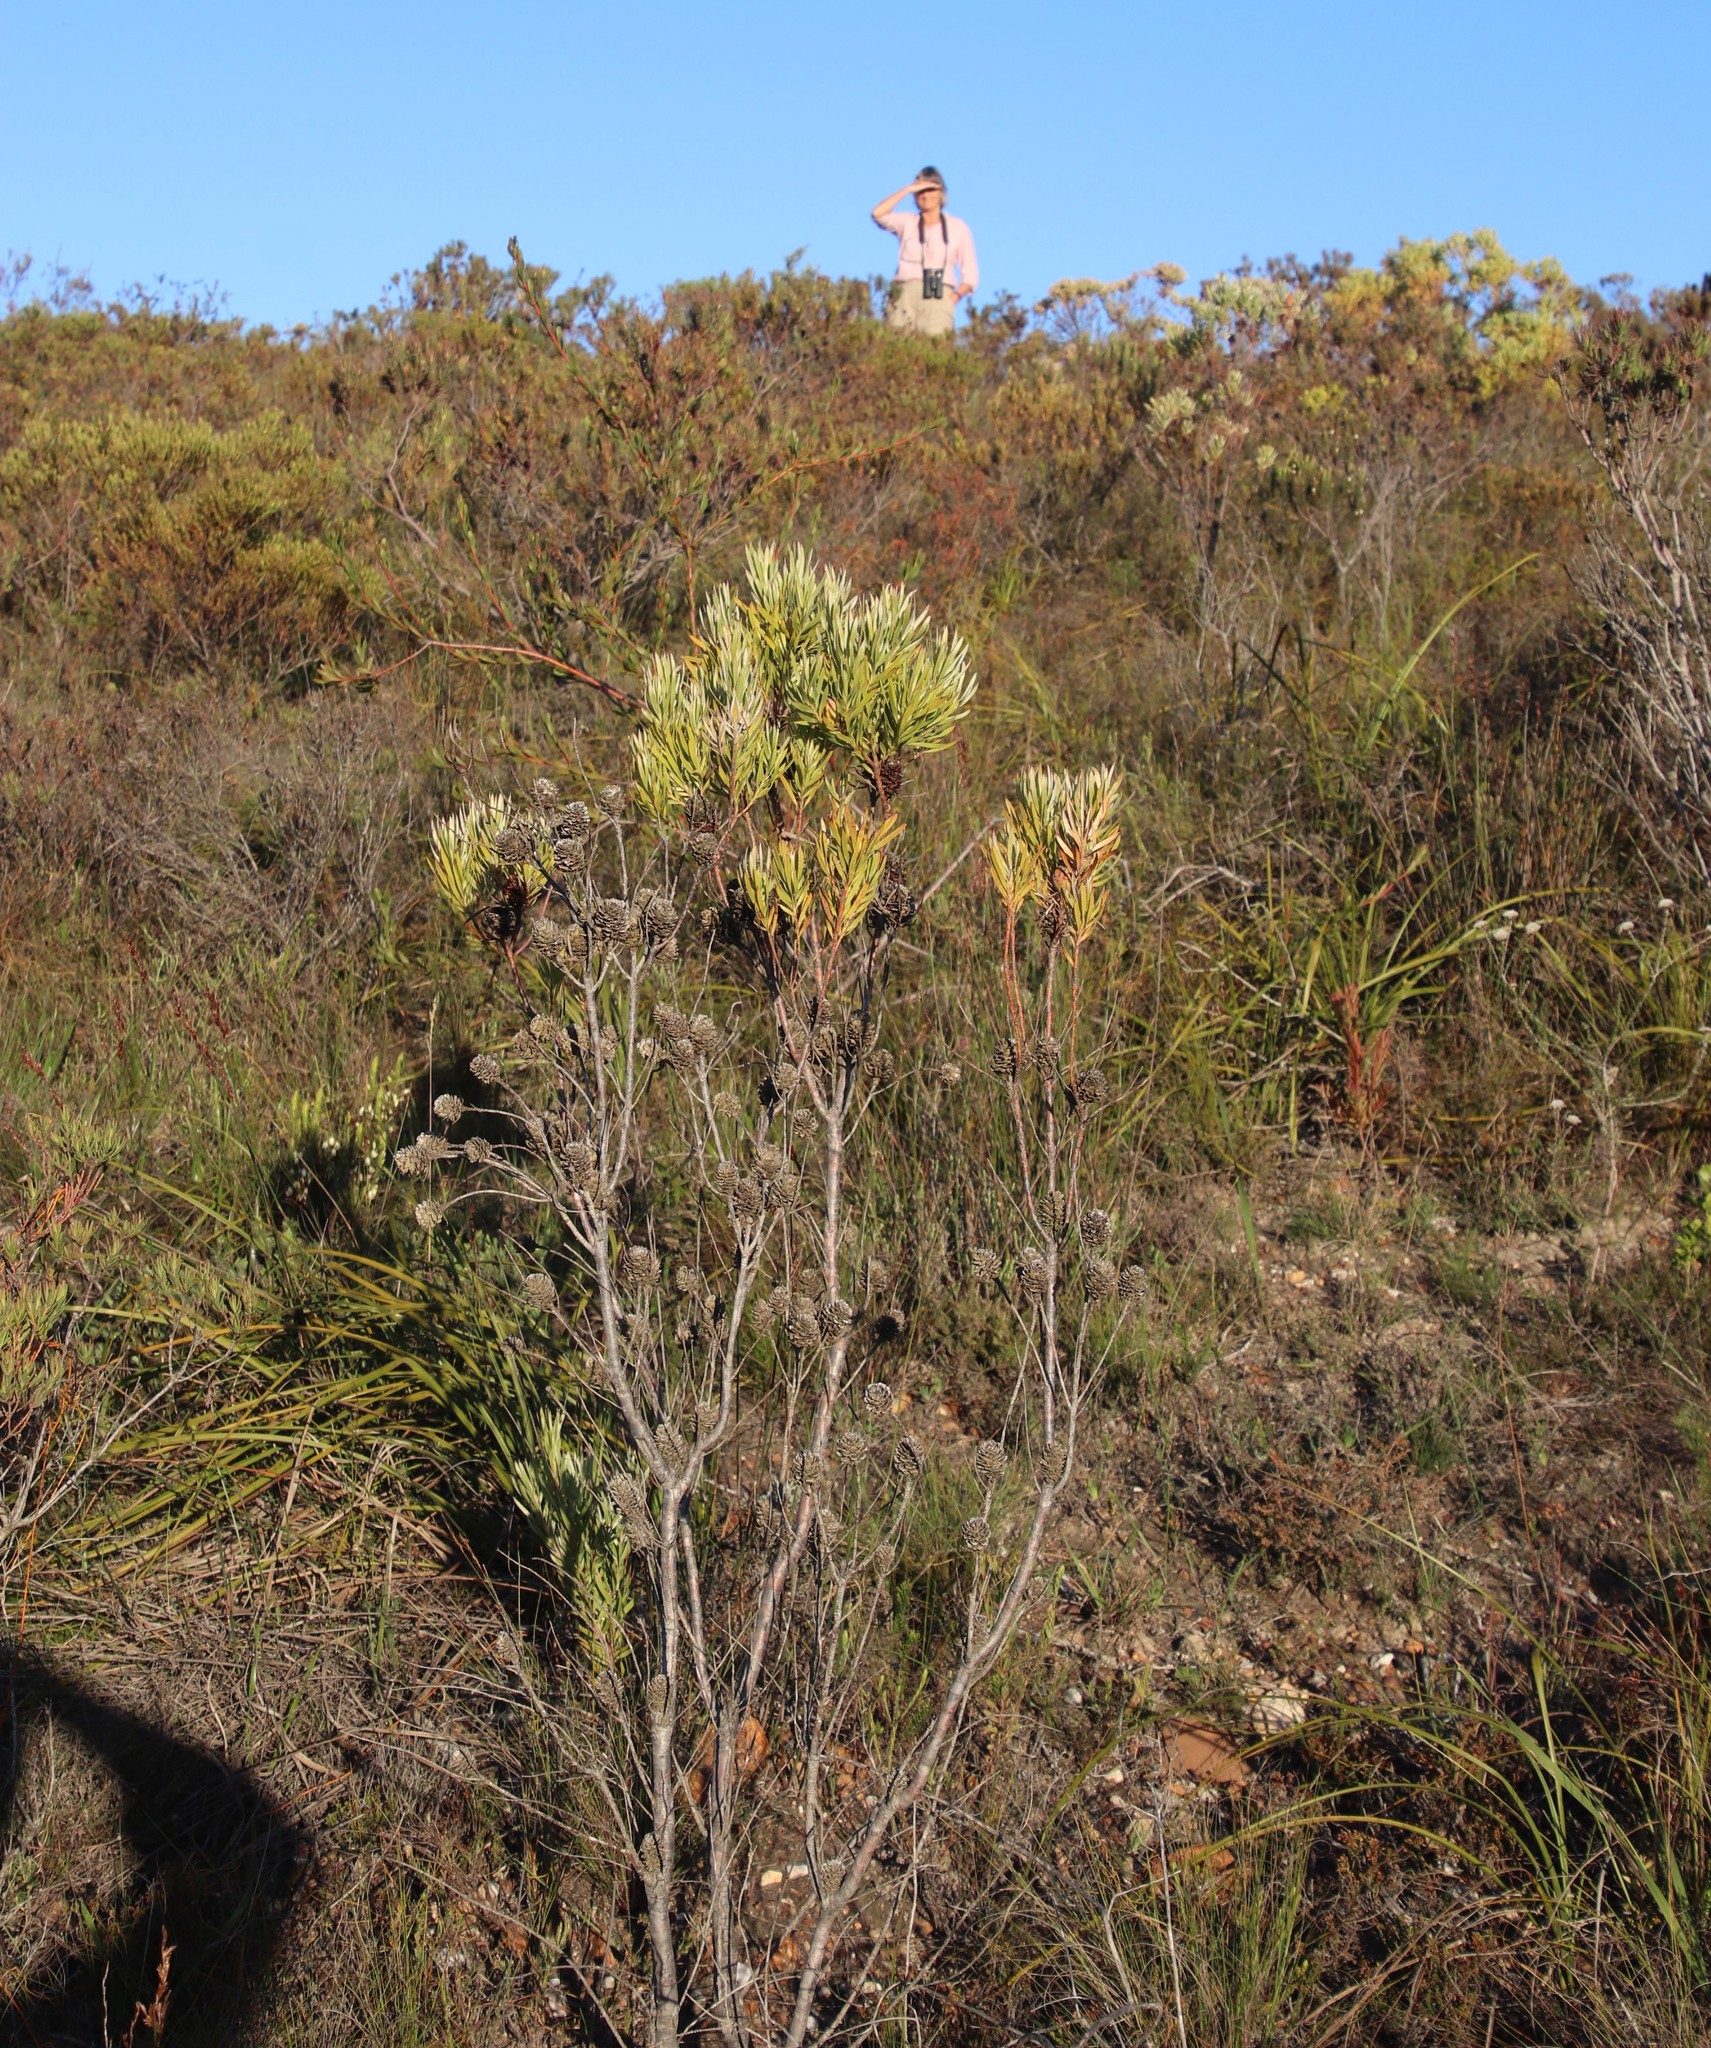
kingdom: Plantae
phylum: Tracheophyta
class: Magnoliopsida
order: Proteales
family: Proteaceae
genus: Leucadendron
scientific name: Leucadendron xanthoconus
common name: Sickle-leaf conebush
